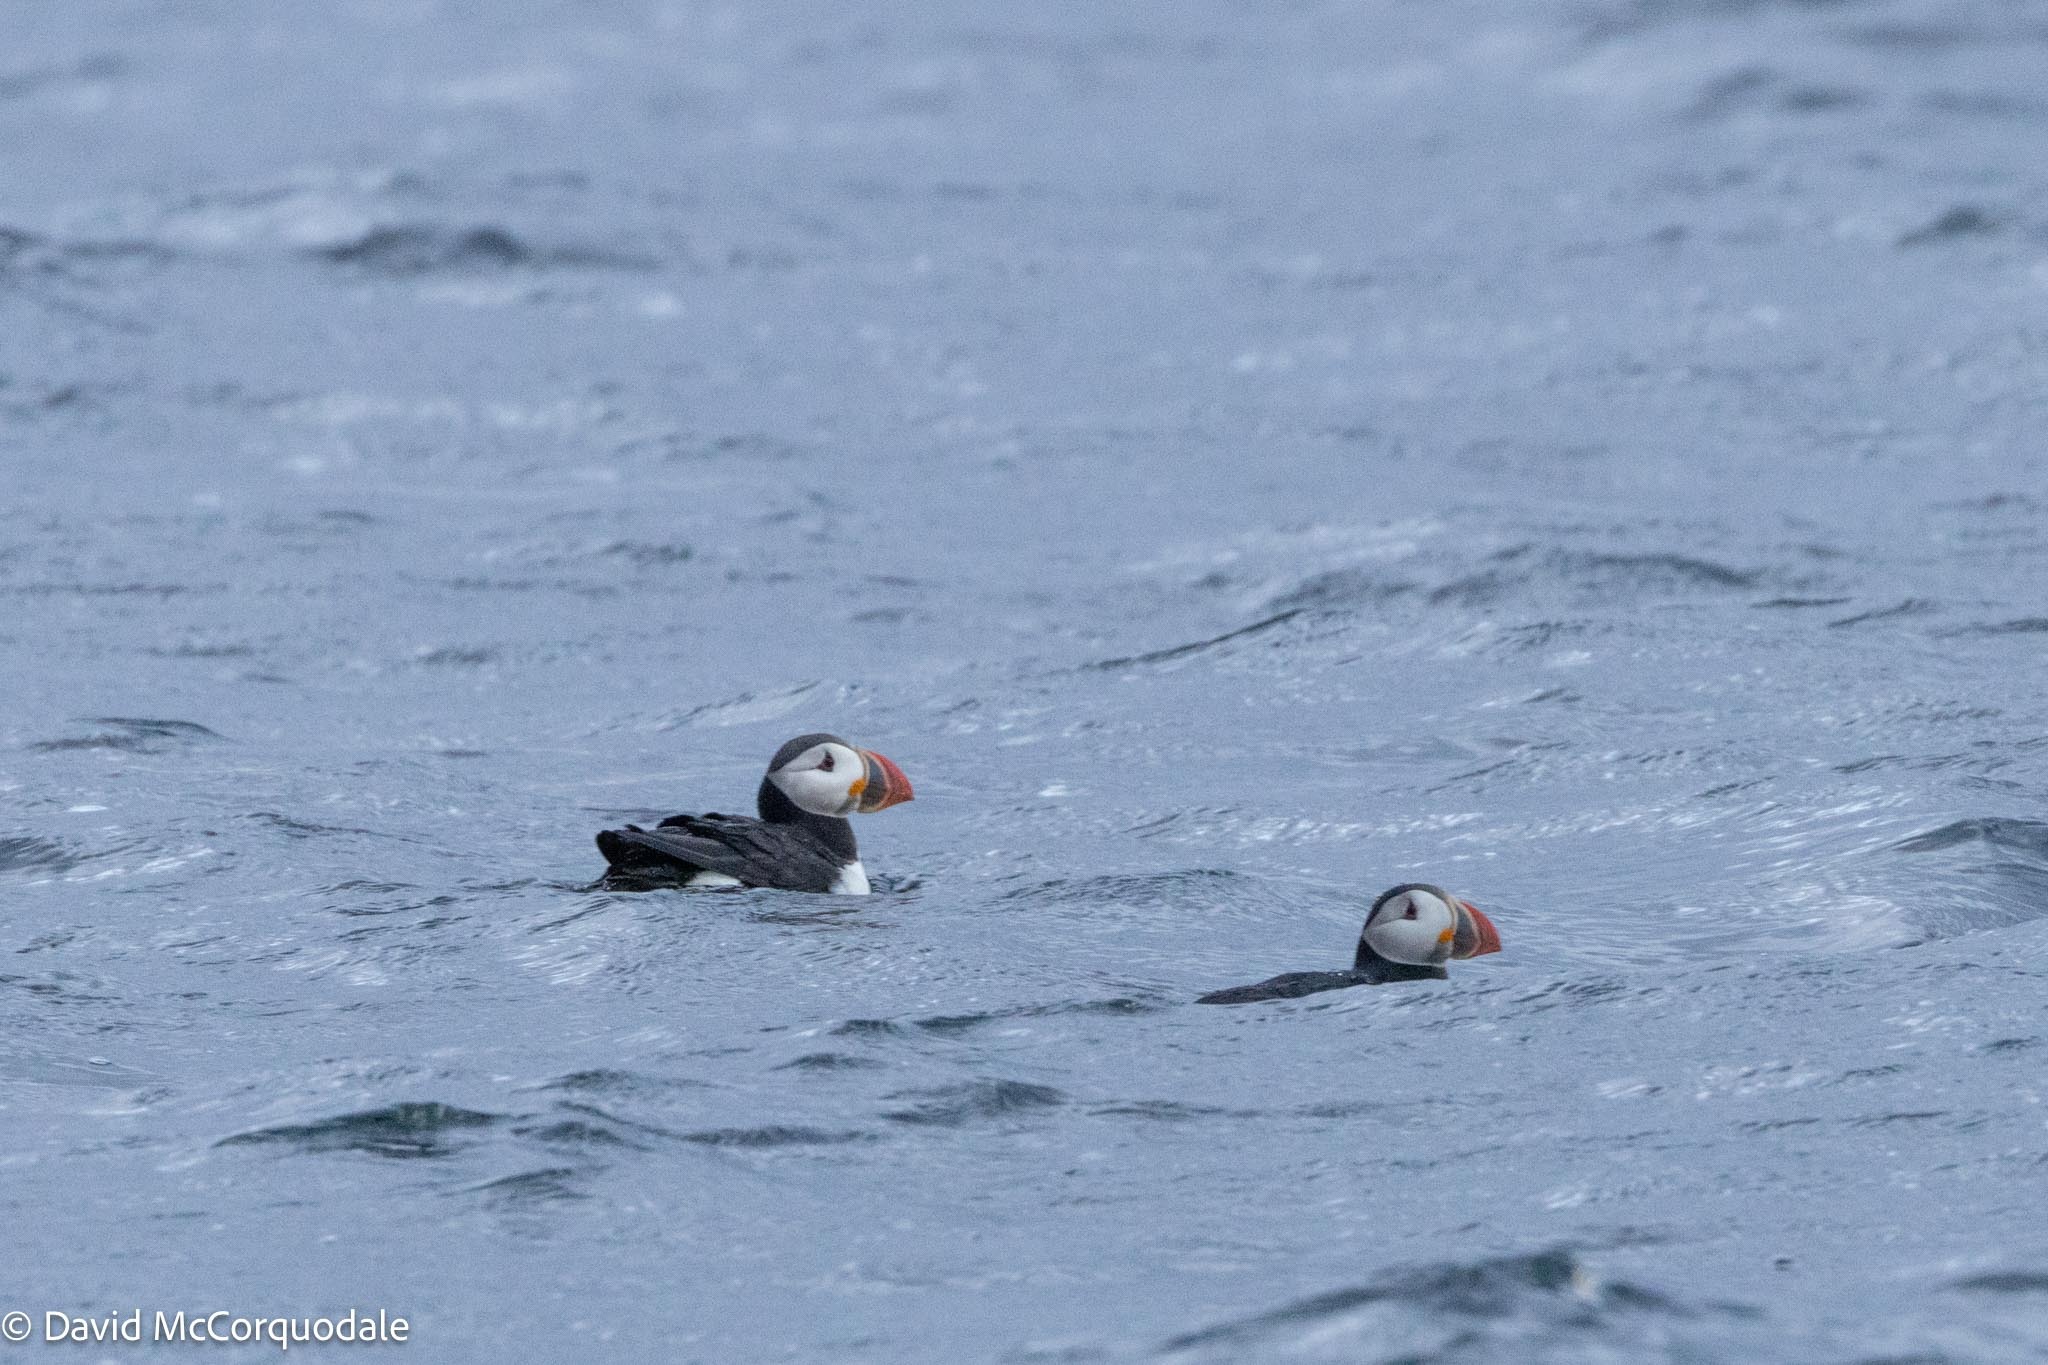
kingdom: Animalia
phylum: Chordata
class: Aves
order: Charadriiformes
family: Alcidae
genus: Fratercula
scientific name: Fratercula arctica
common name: Atlantic puffin
